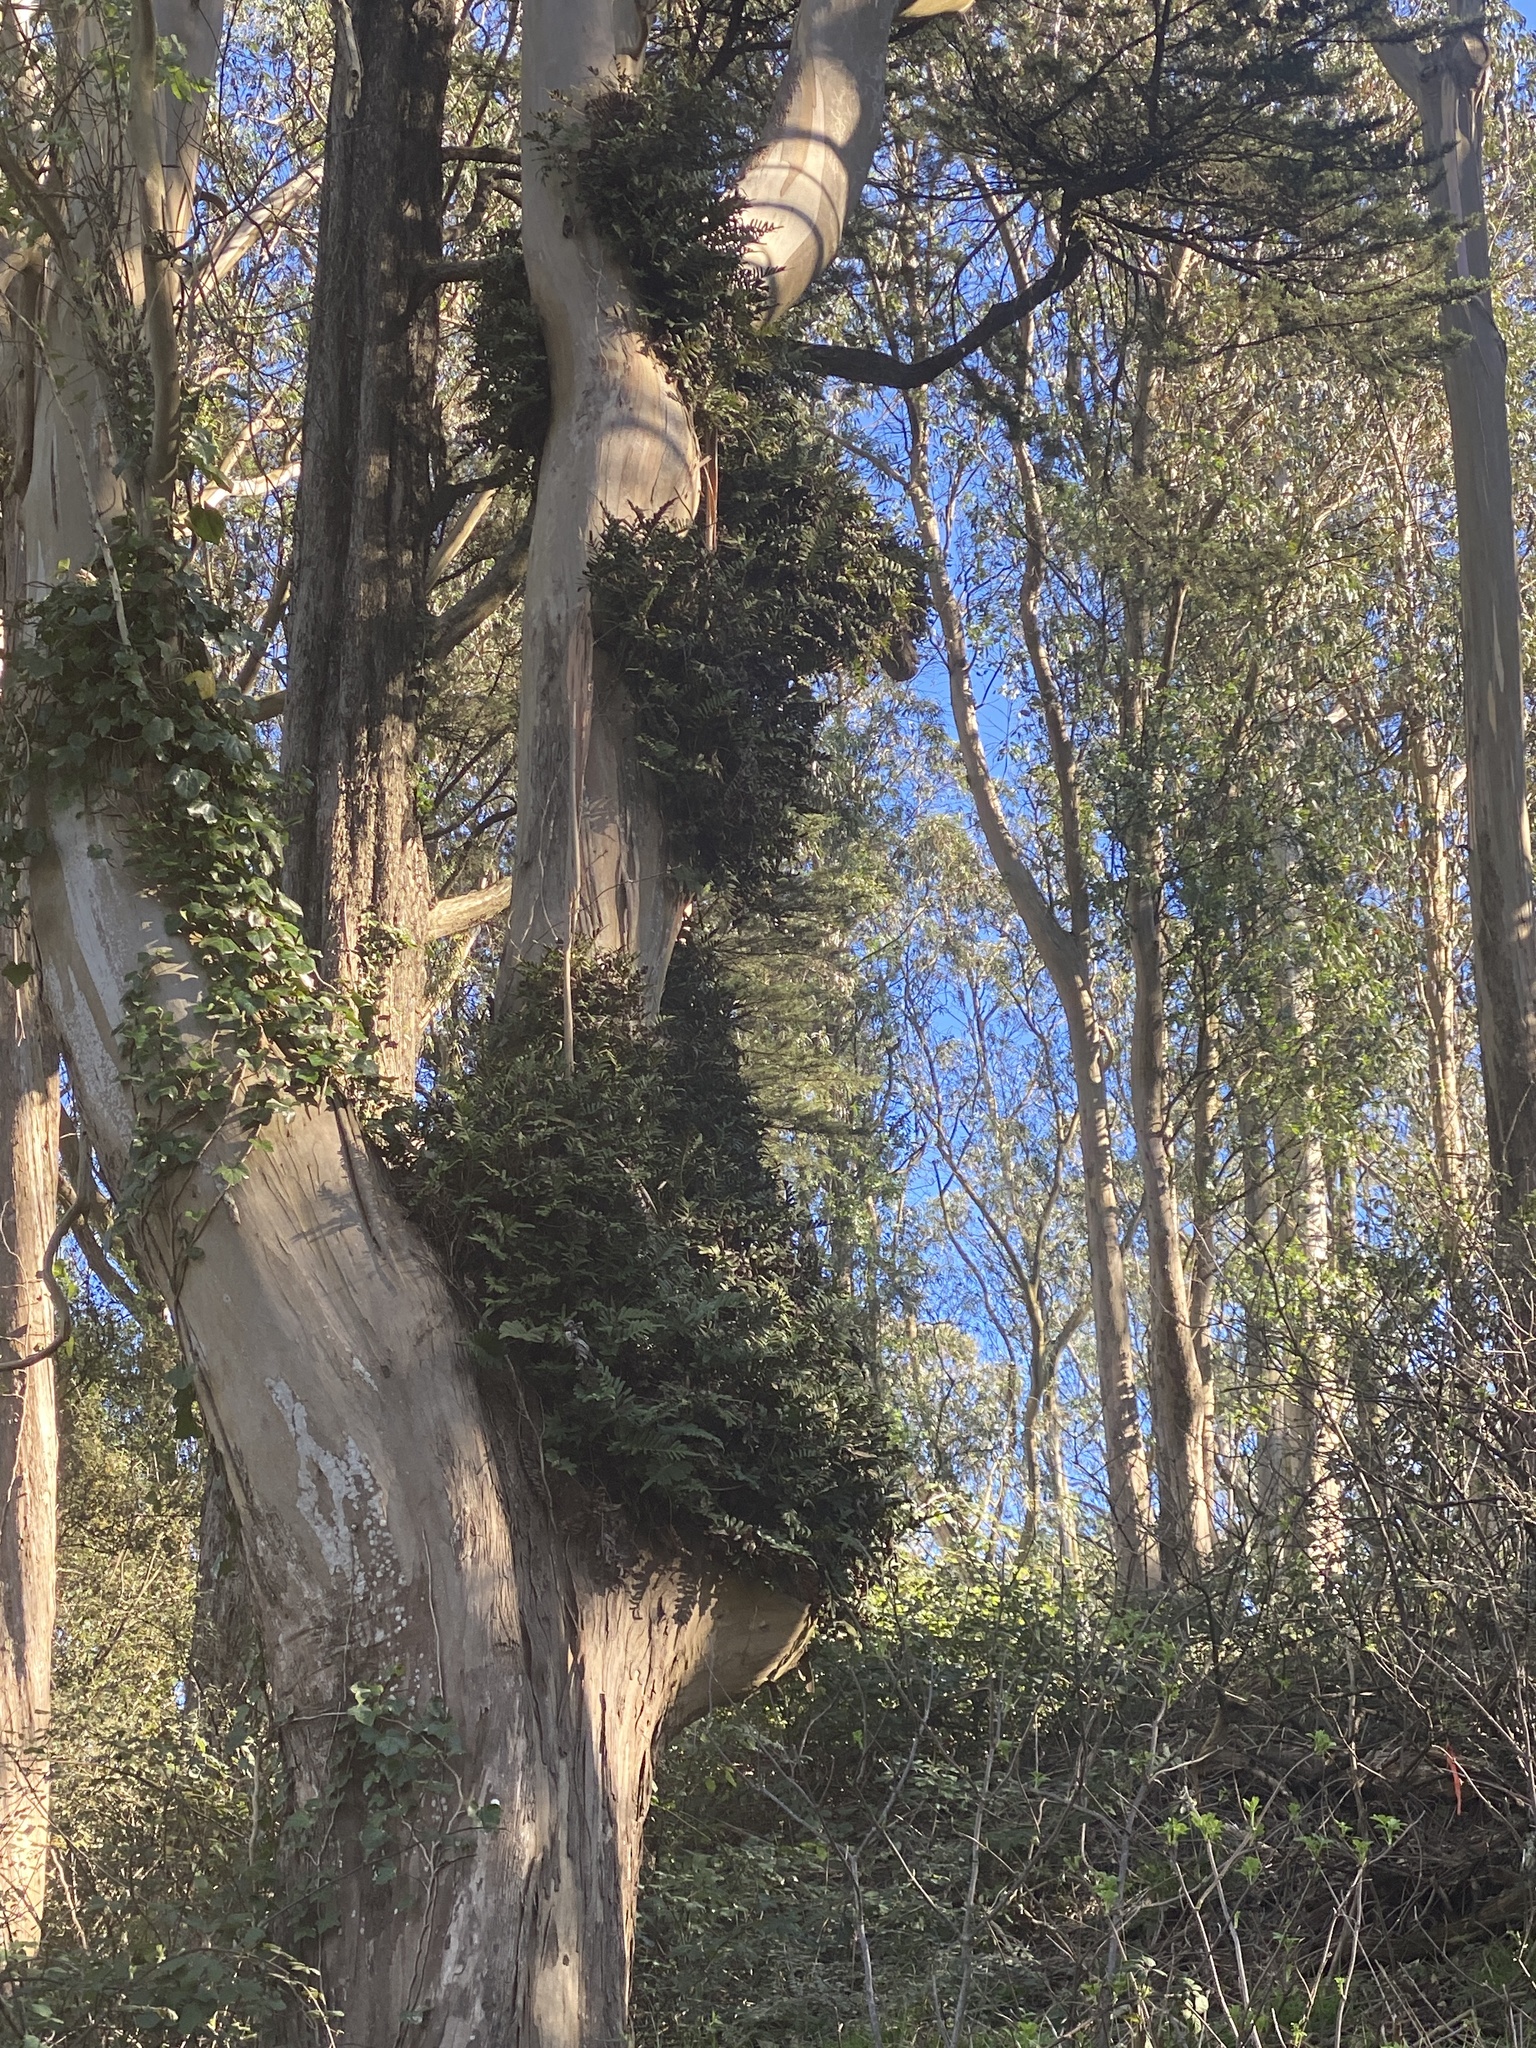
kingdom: Plantae
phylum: Tracheophyta
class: Polypodiopsida
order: Polypodiales
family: Polypodiaceae
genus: Polypodium
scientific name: Polypodium scouleri
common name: Scouler's polypody
